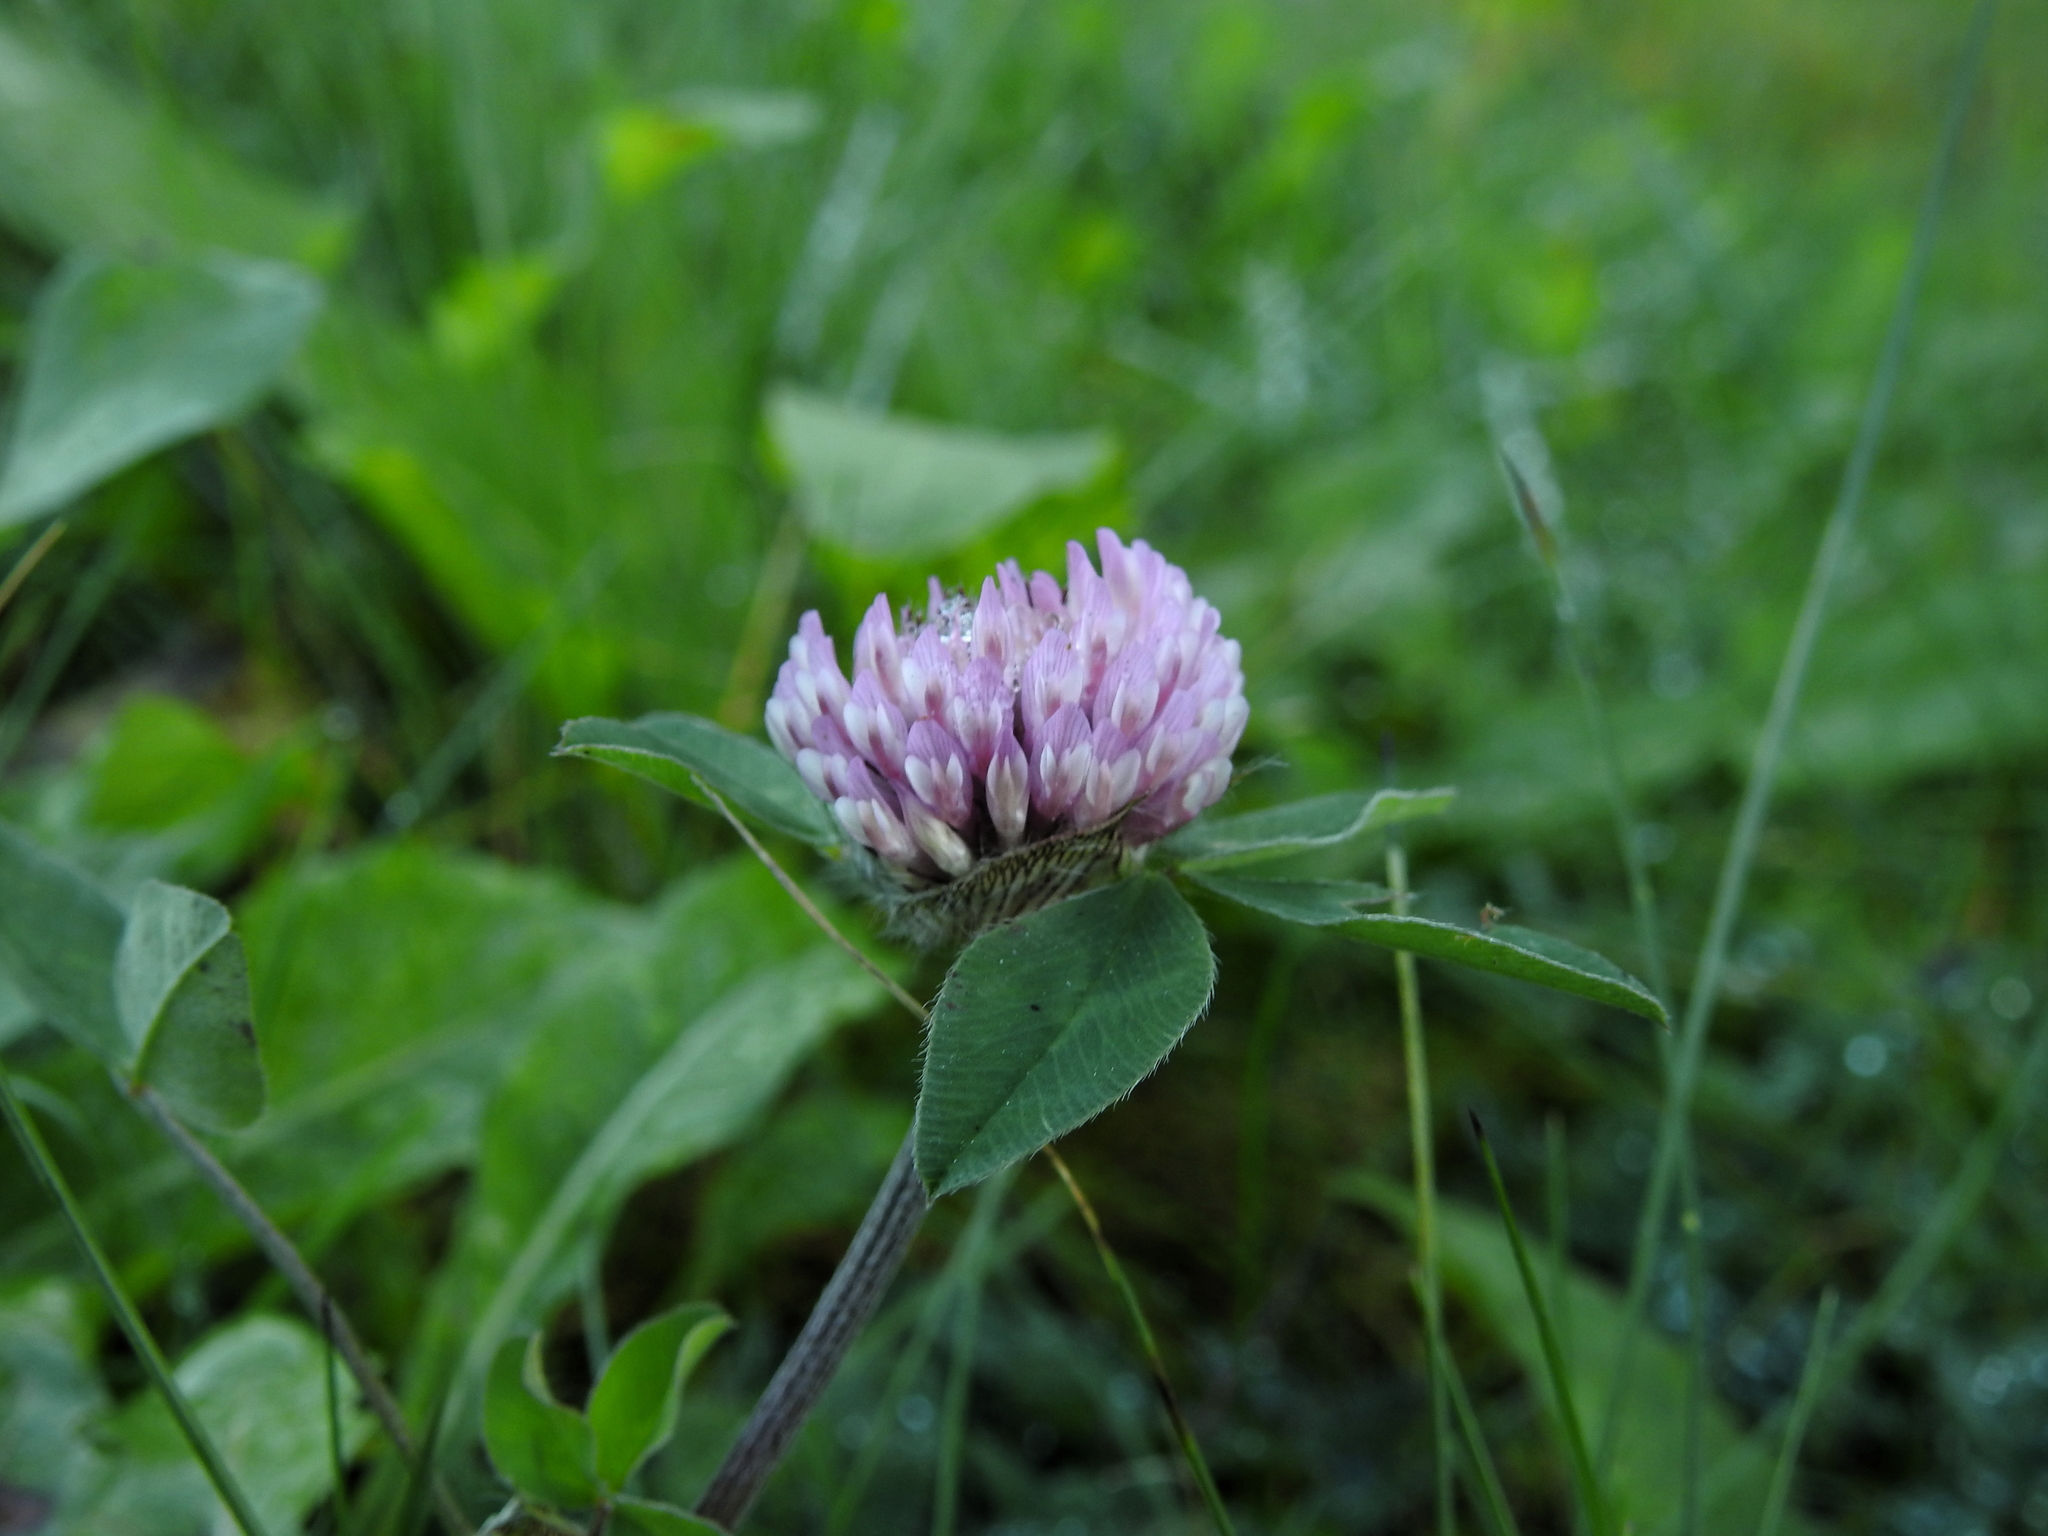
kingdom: Plantae
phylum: Tracheophyta
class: Magnoliopsida
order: Fabales
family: Fabaceae
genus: Trifolium
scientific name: Trifolium pratense
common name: Red clover
